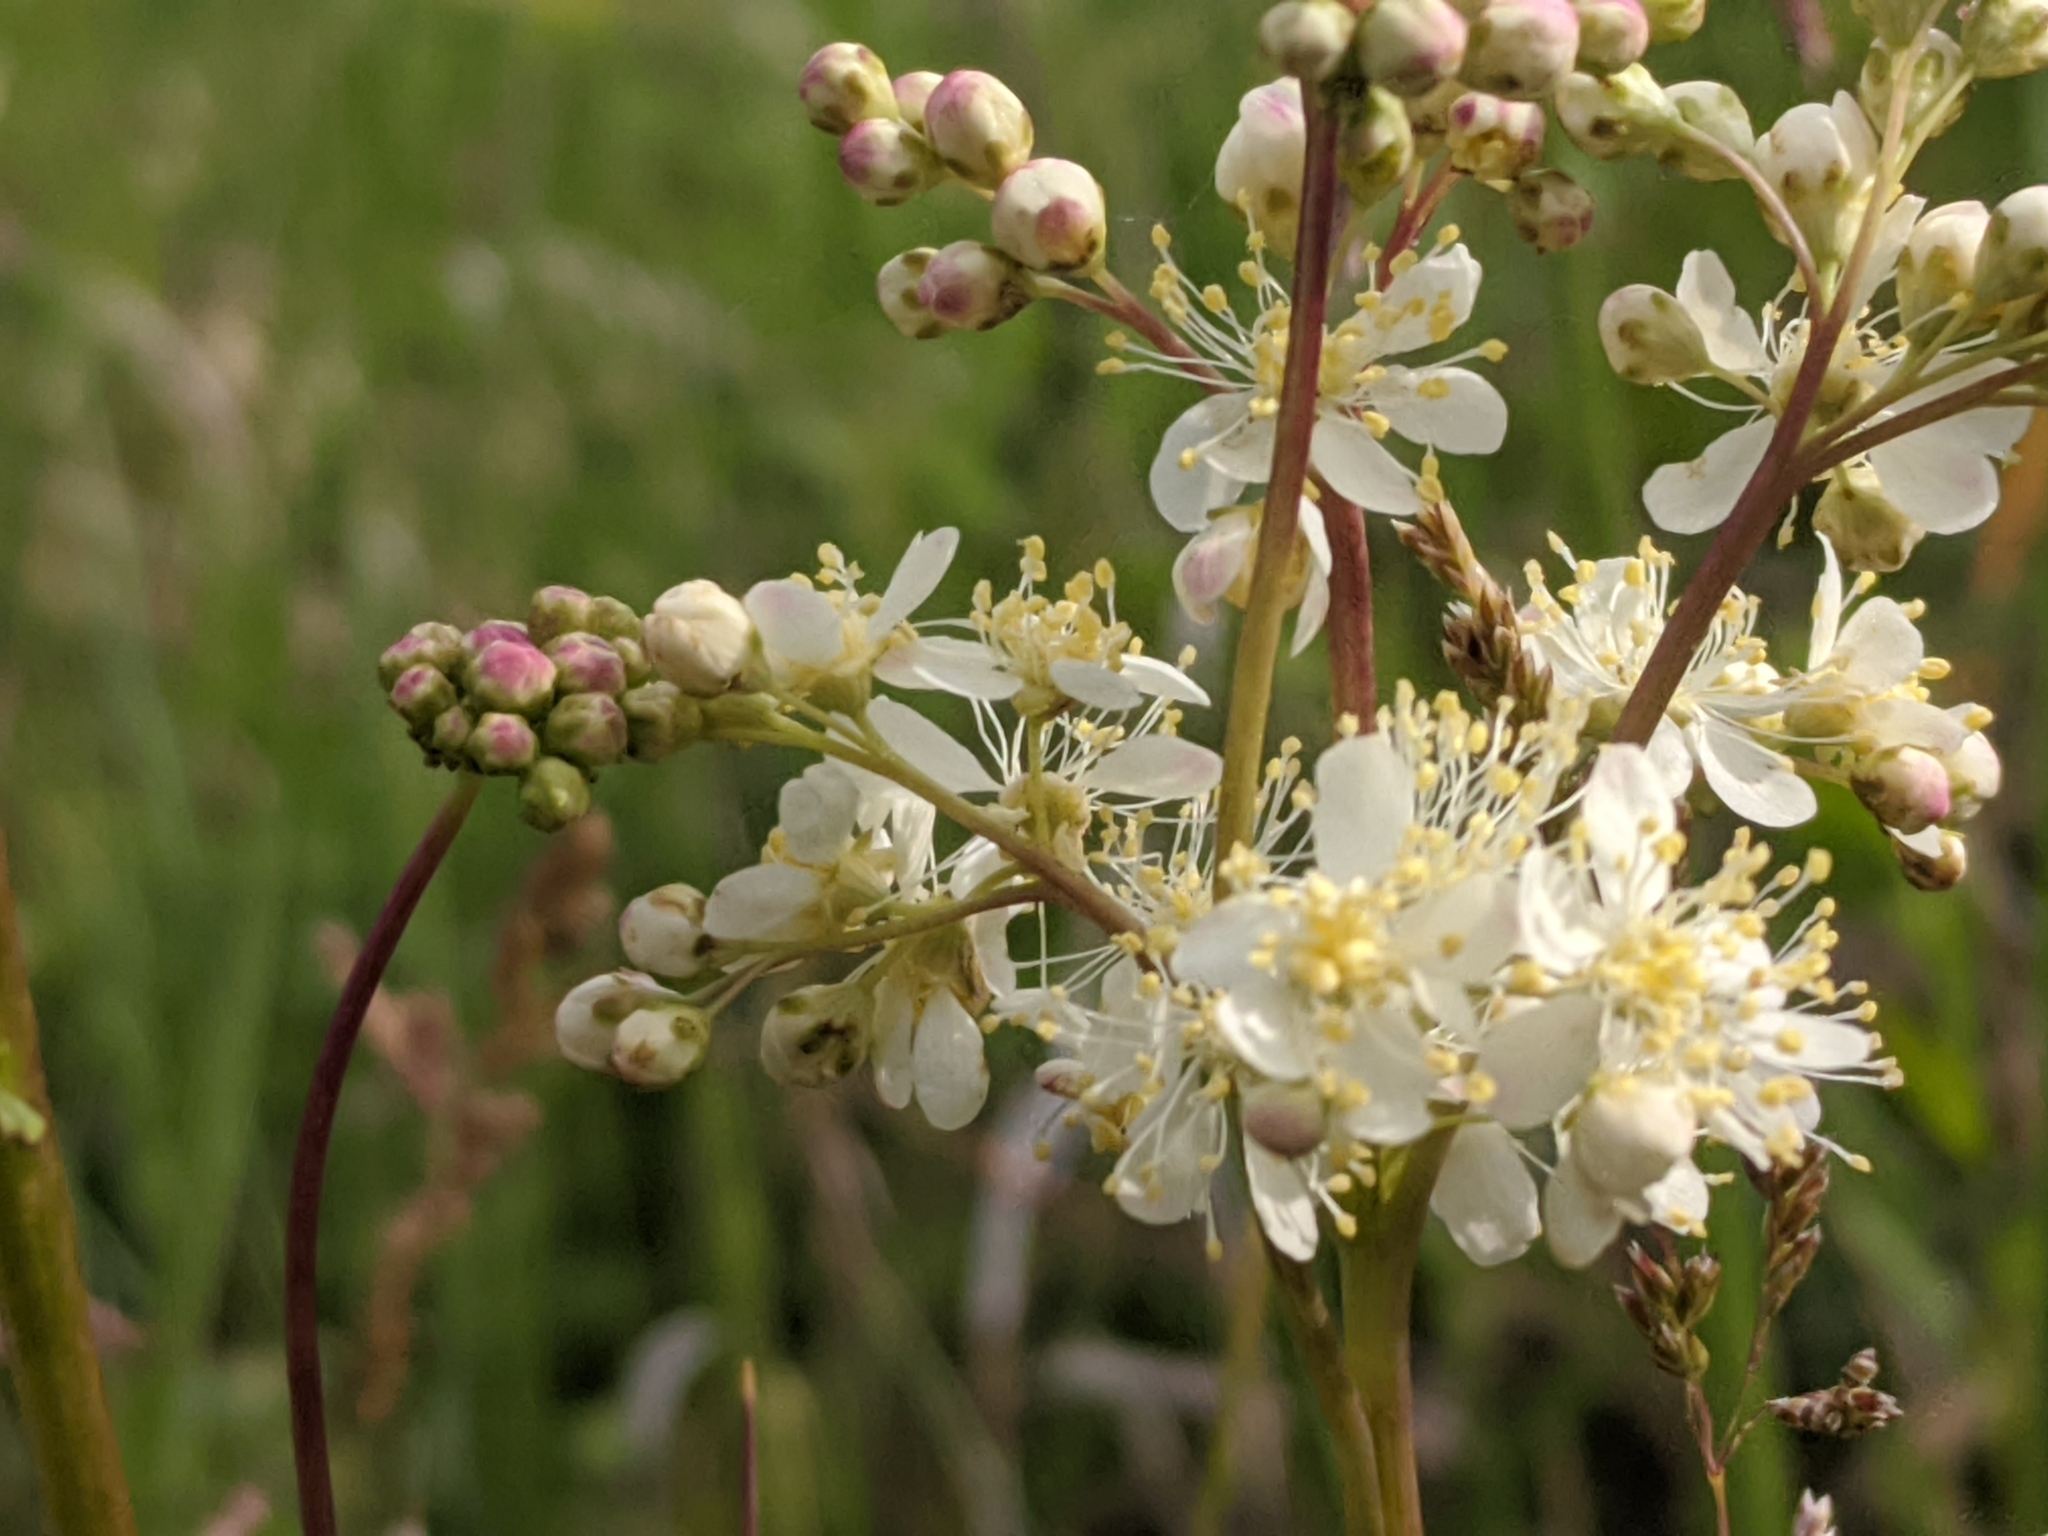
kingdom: Plantae
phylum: Tracheophyta
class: Magnoliopsida
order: Rosales
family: Rosaceae
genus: Filipendula
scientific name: Filipendula vulgaris
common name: Dropwort
